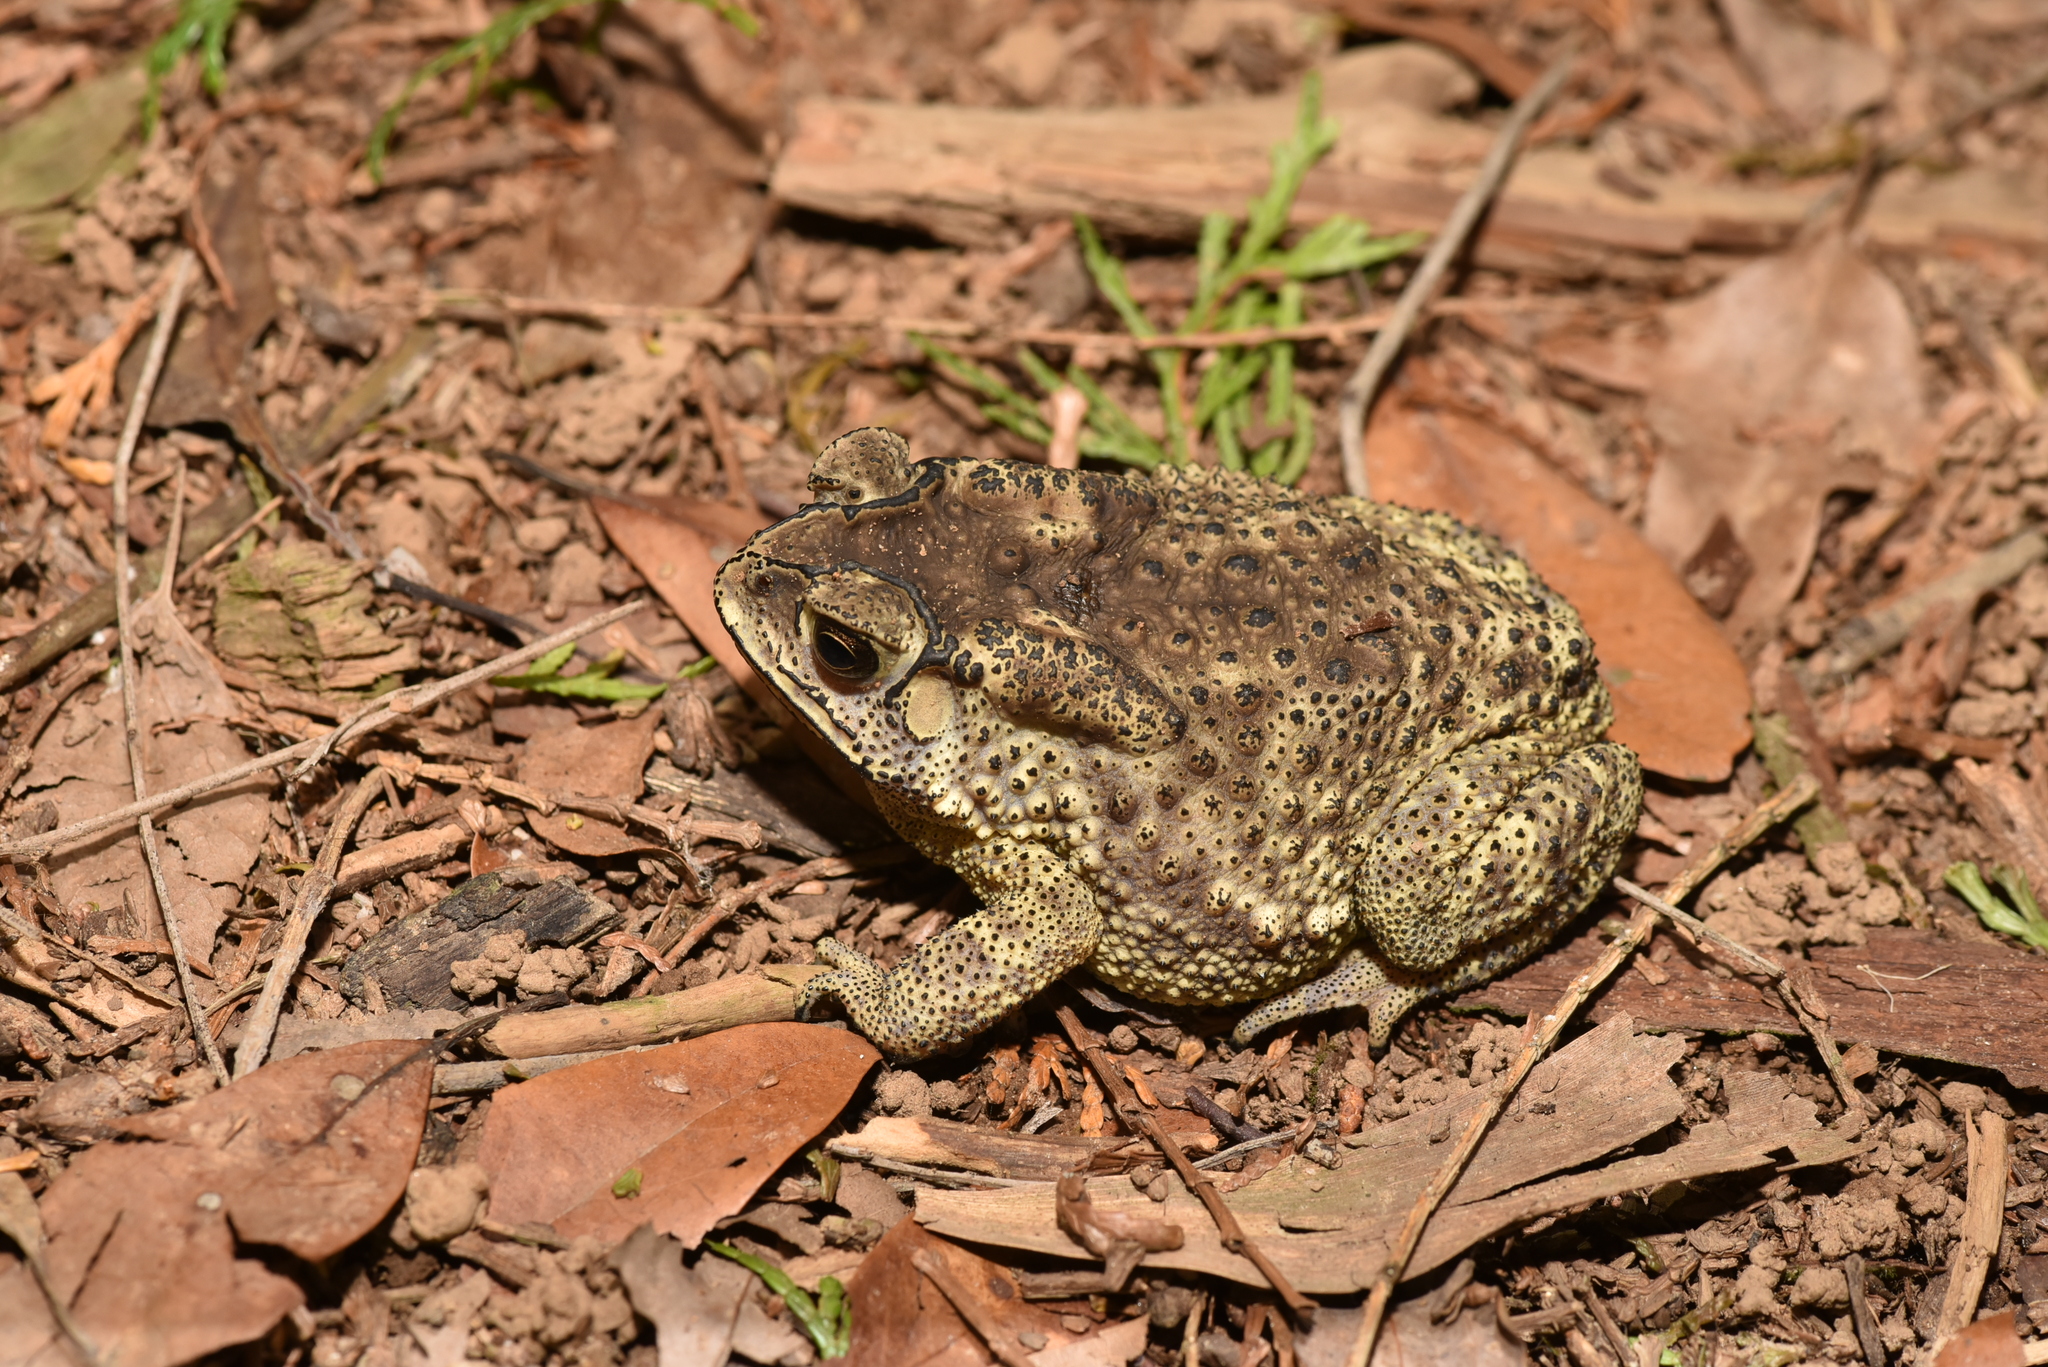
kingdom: Animalia
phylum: Chordata
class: Amphibia
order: Anura
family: Bufonidae
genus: Duttaphrynus
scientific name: Duttaphrynus melanostictus
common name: Common sunda toad
